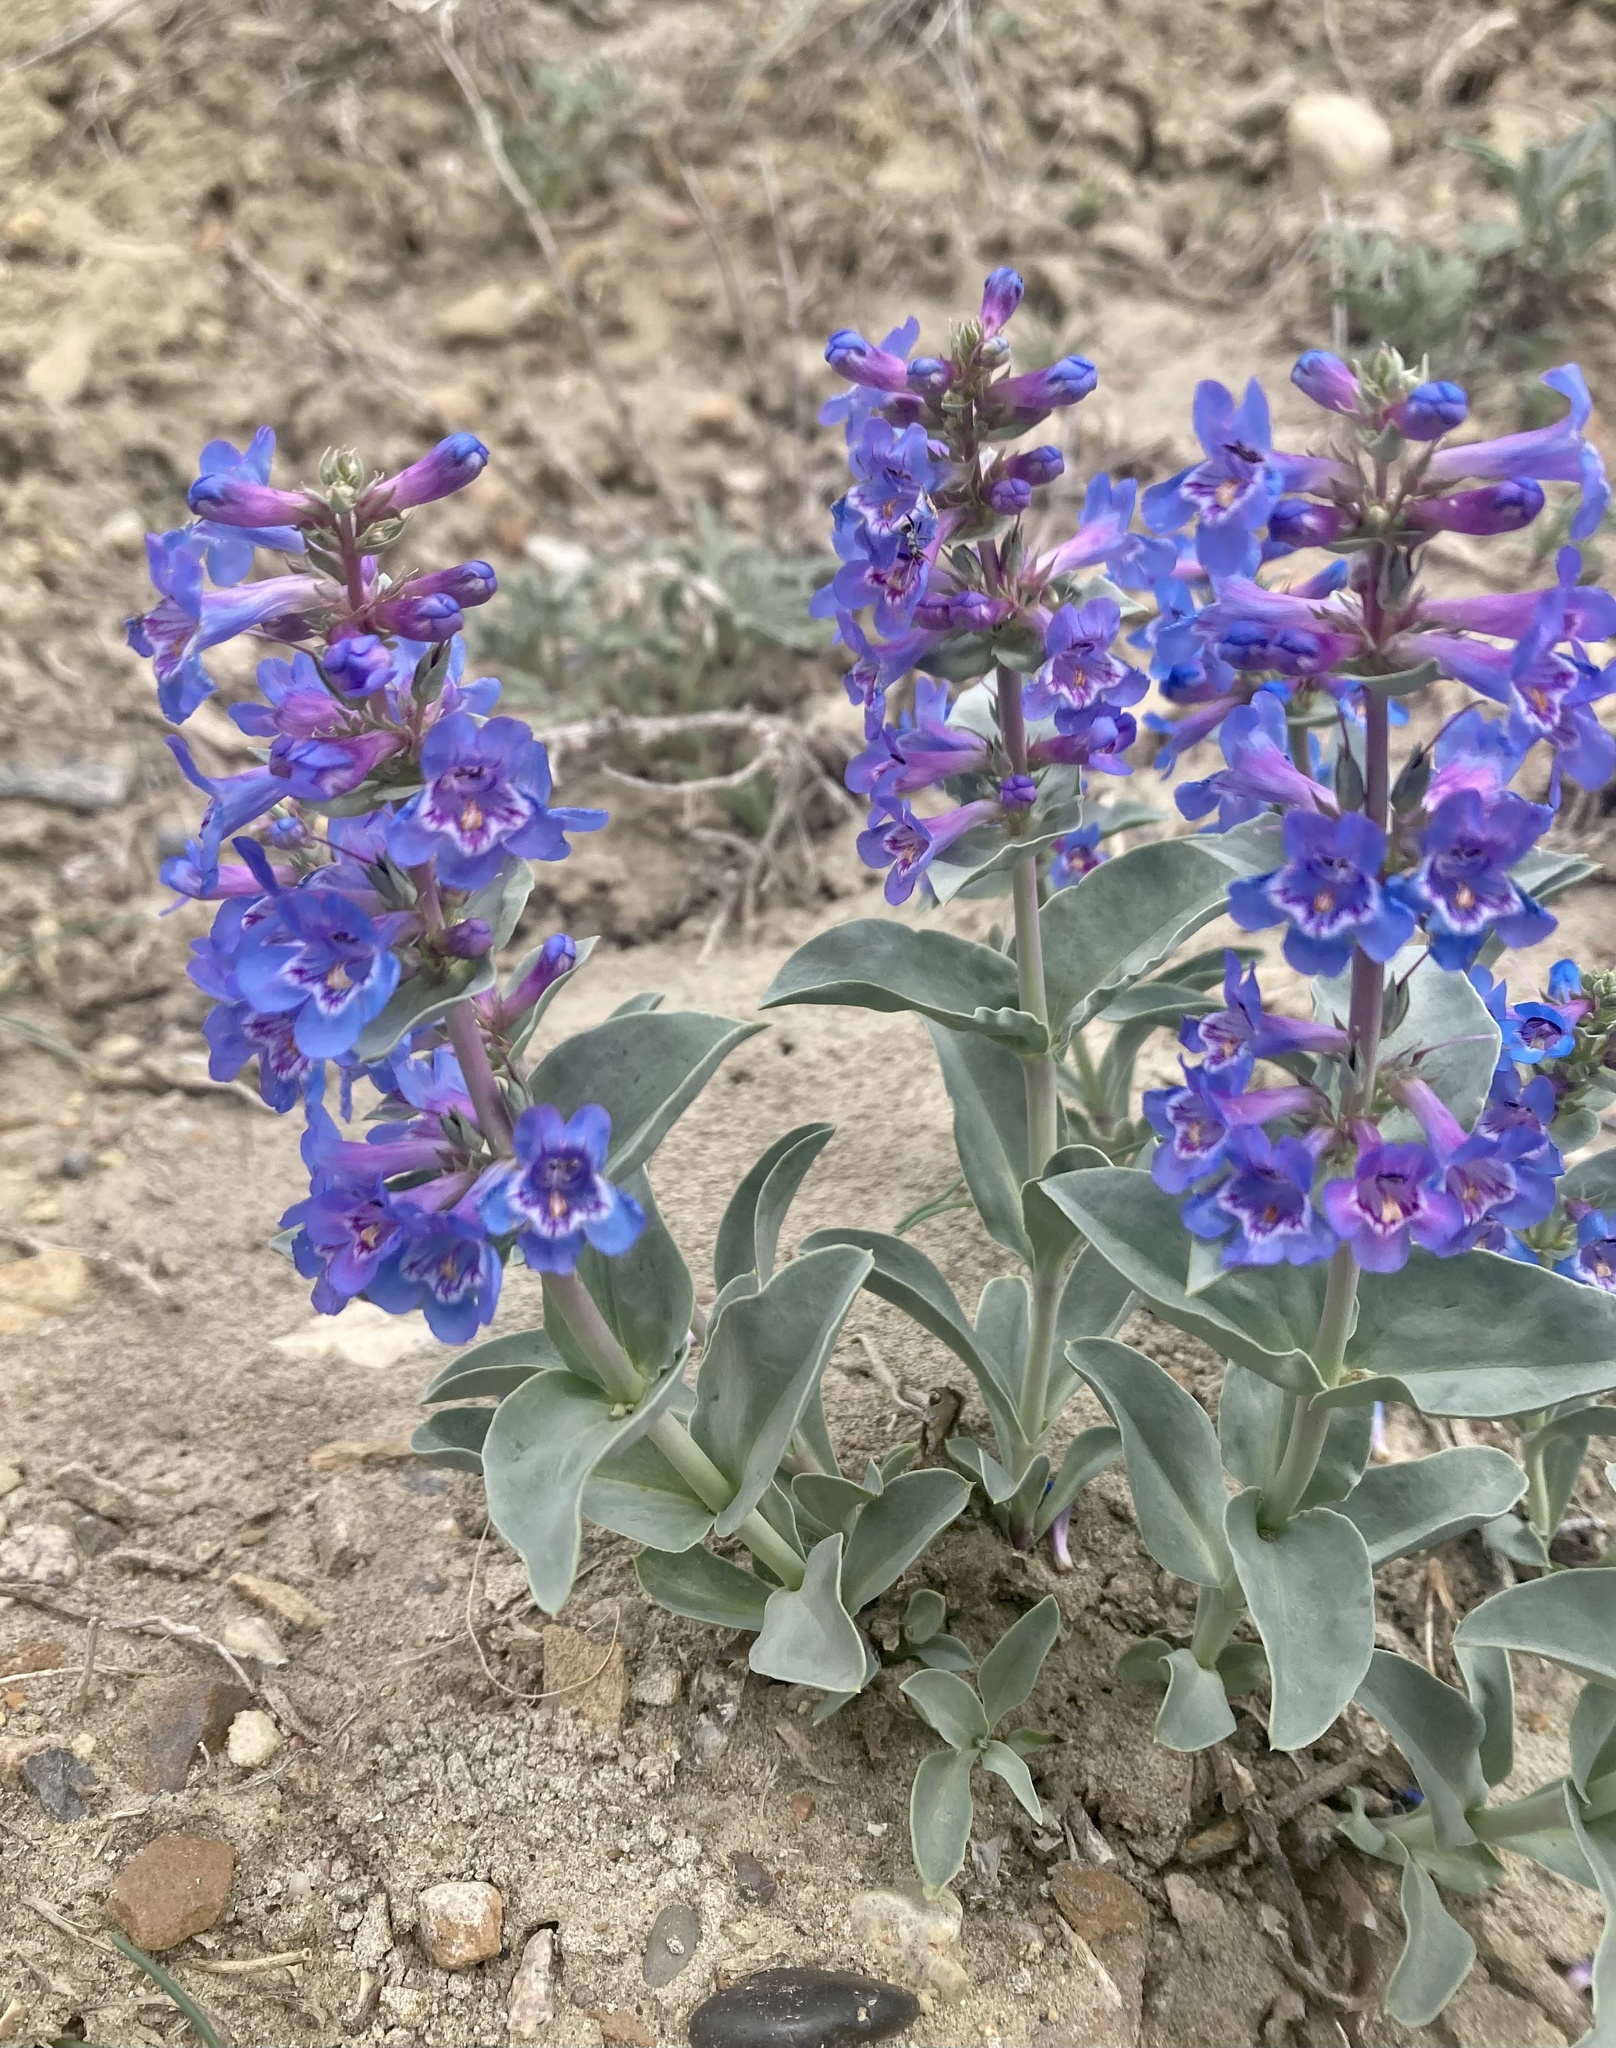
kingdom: Plantae
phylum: Tracheophyta
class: Magnoliopsida
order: Lamiales
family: Plantaginaceae
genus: Penstemon
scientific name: Penstemon nitidus
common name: Shining penstemon
